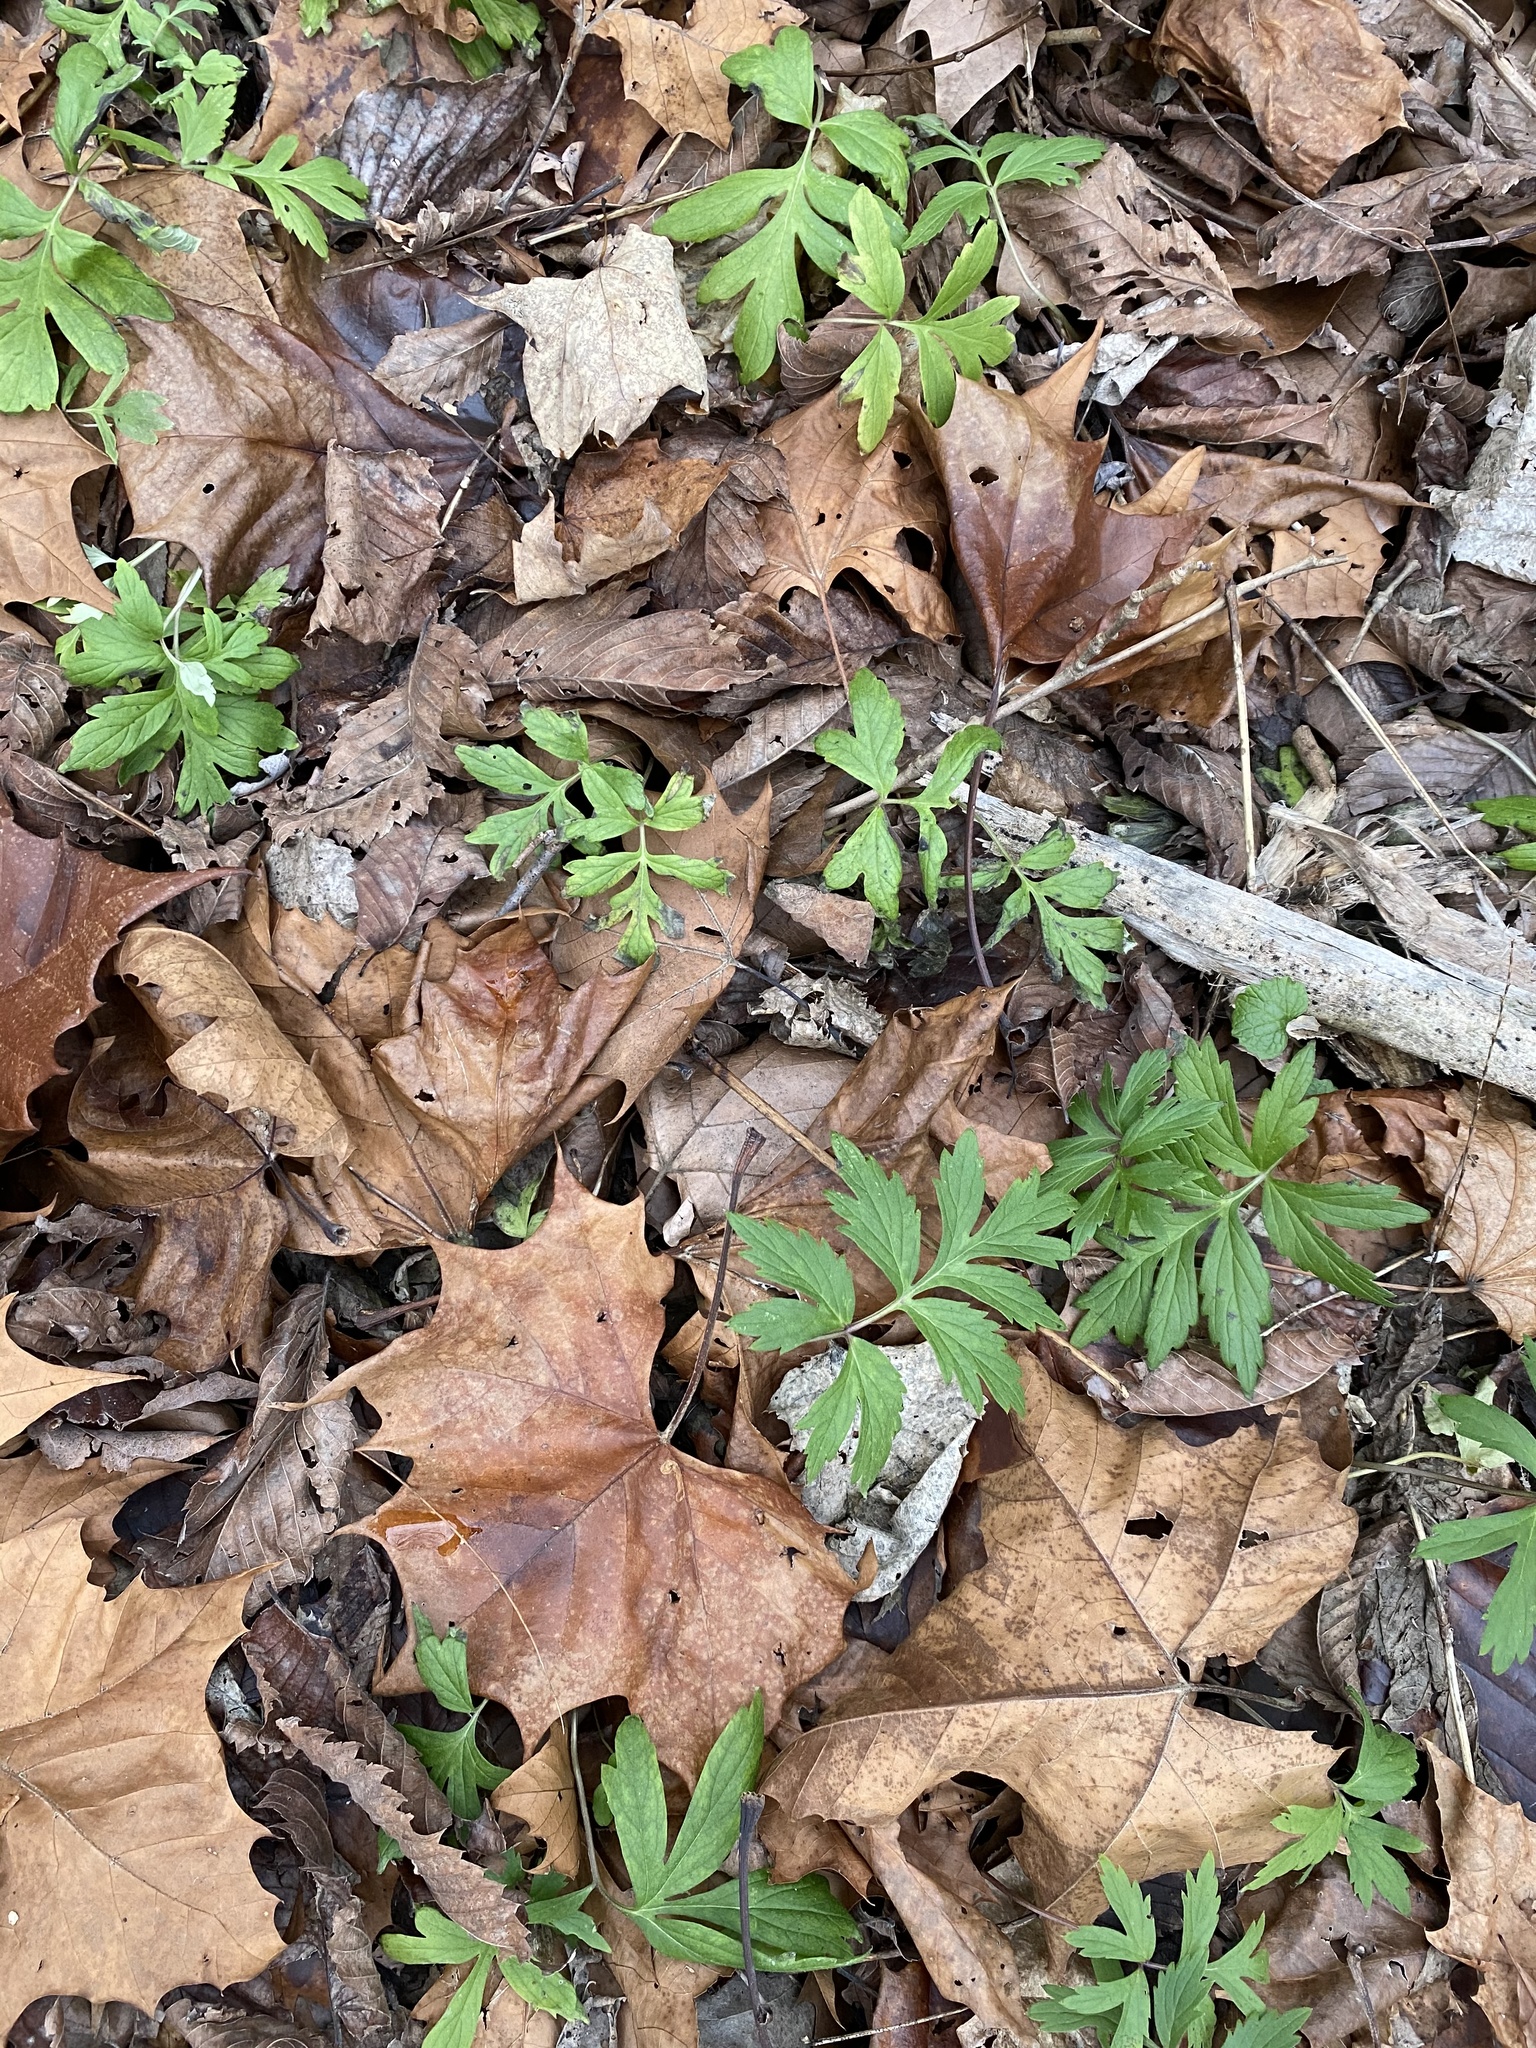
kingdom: Plantae
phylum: Tracheophyta
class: Magnoliopsida
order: Boraginales
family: Hydrophyllaceae
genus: Hydrophyllum
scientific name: Hydrophyllum virginianum
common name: Virginia waterleaf
